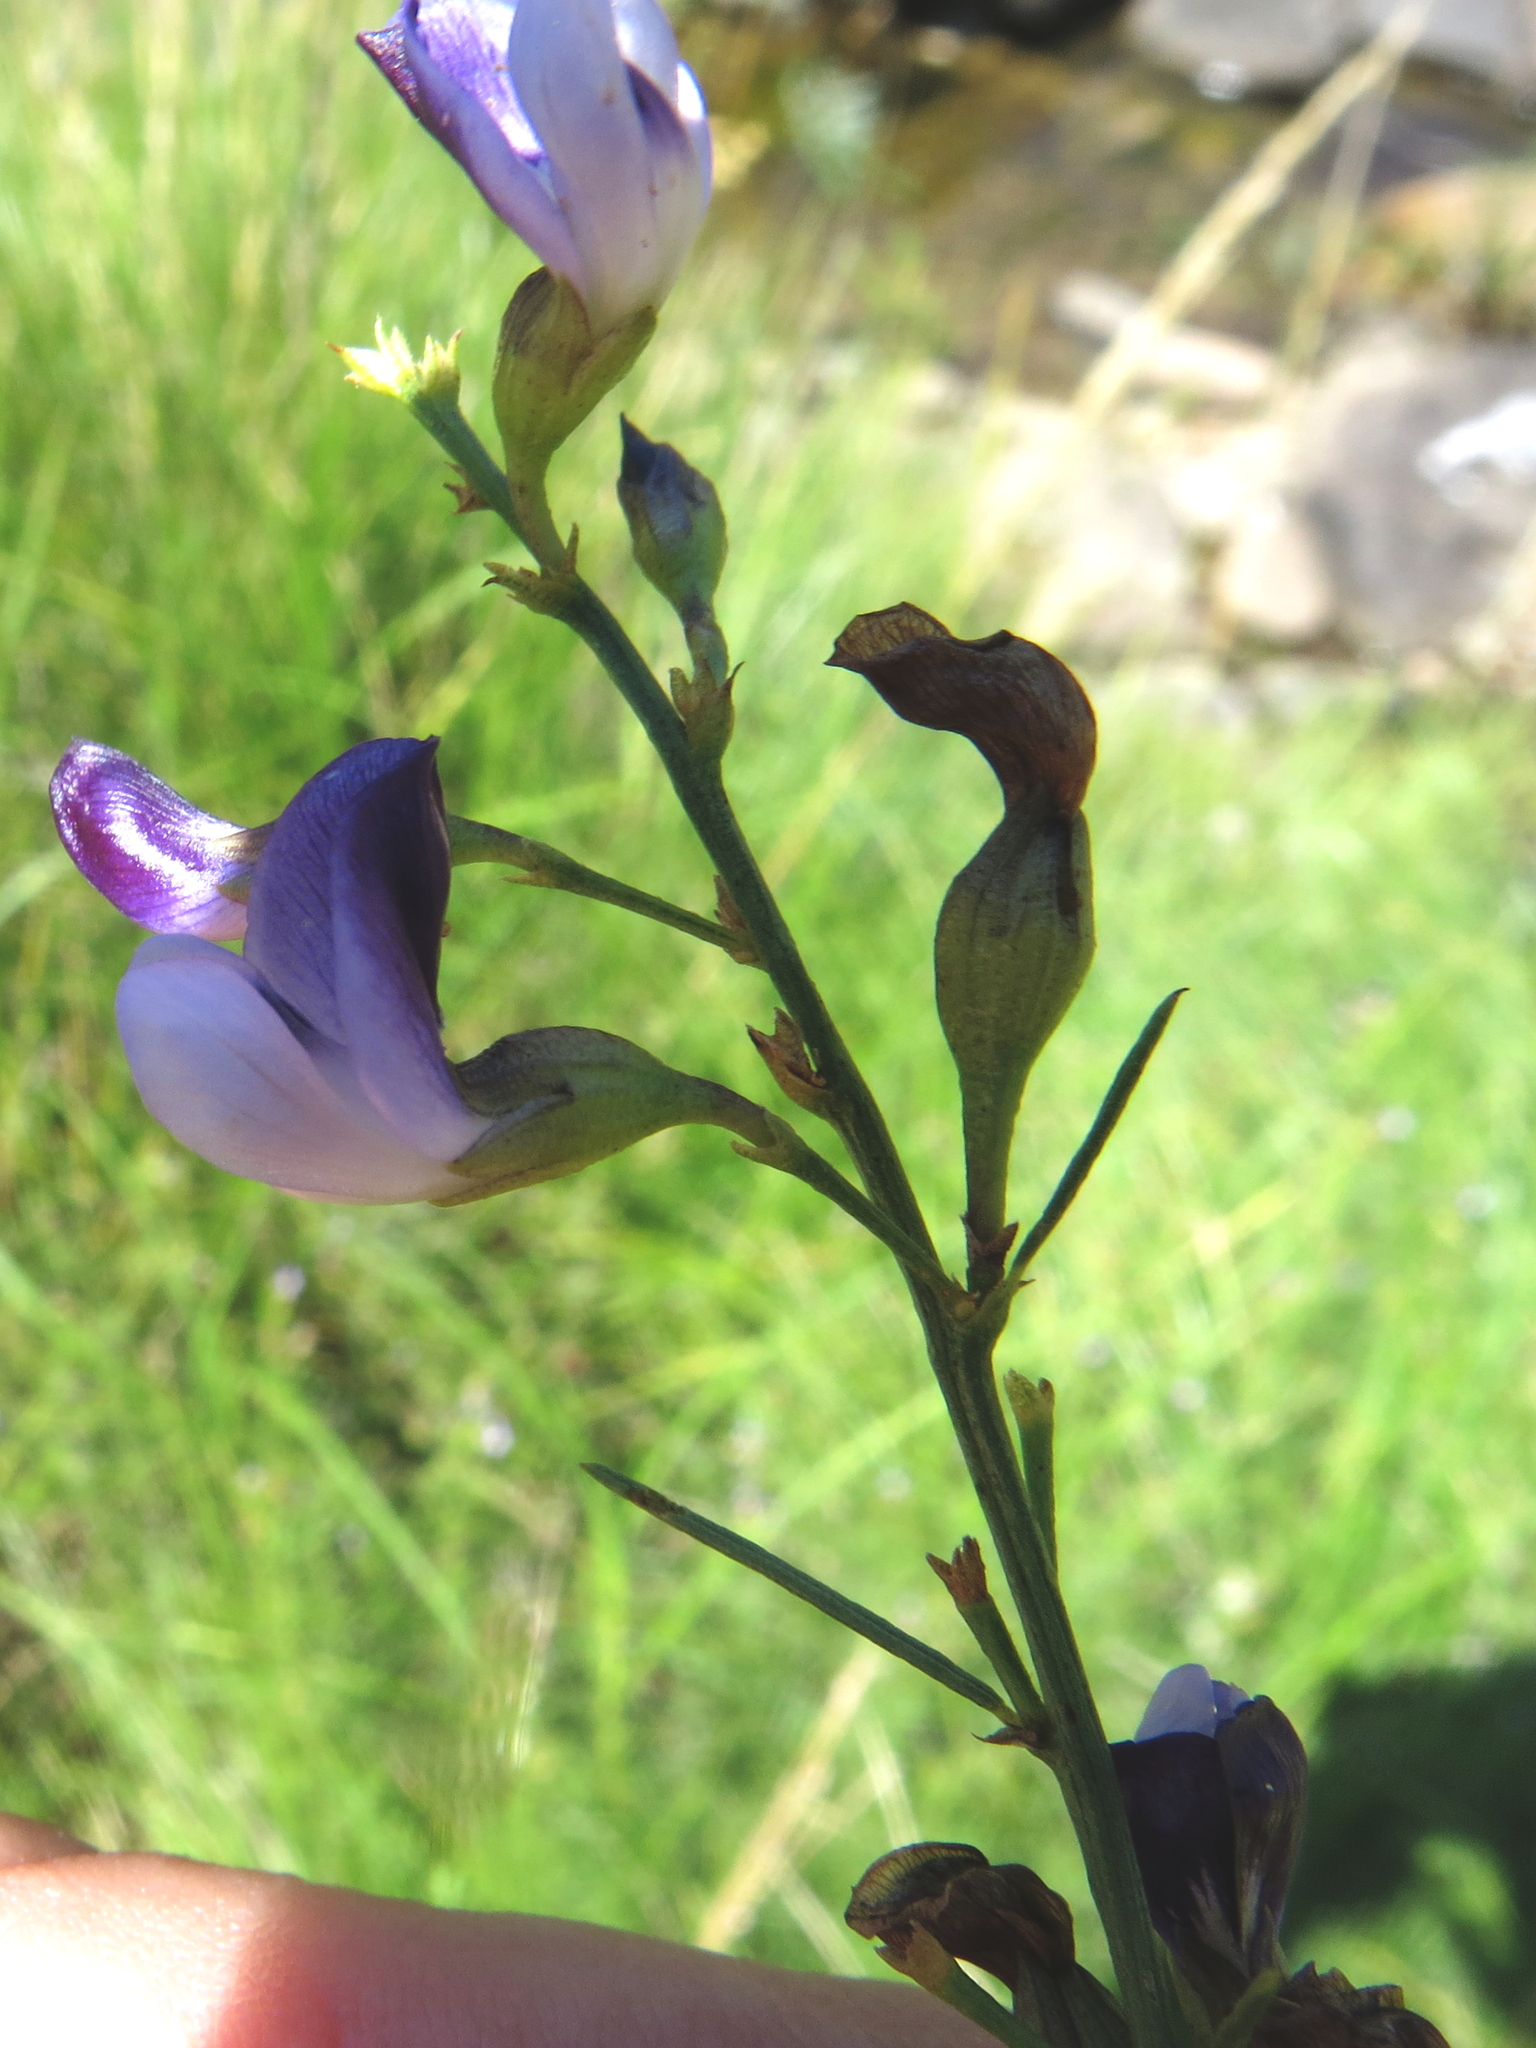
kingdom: Plantae
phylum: Tracheophyta
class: Magnoliopsida
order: Fabales
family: Fabaceae
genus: Psoralea
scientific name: Psoralea rhizotoma
